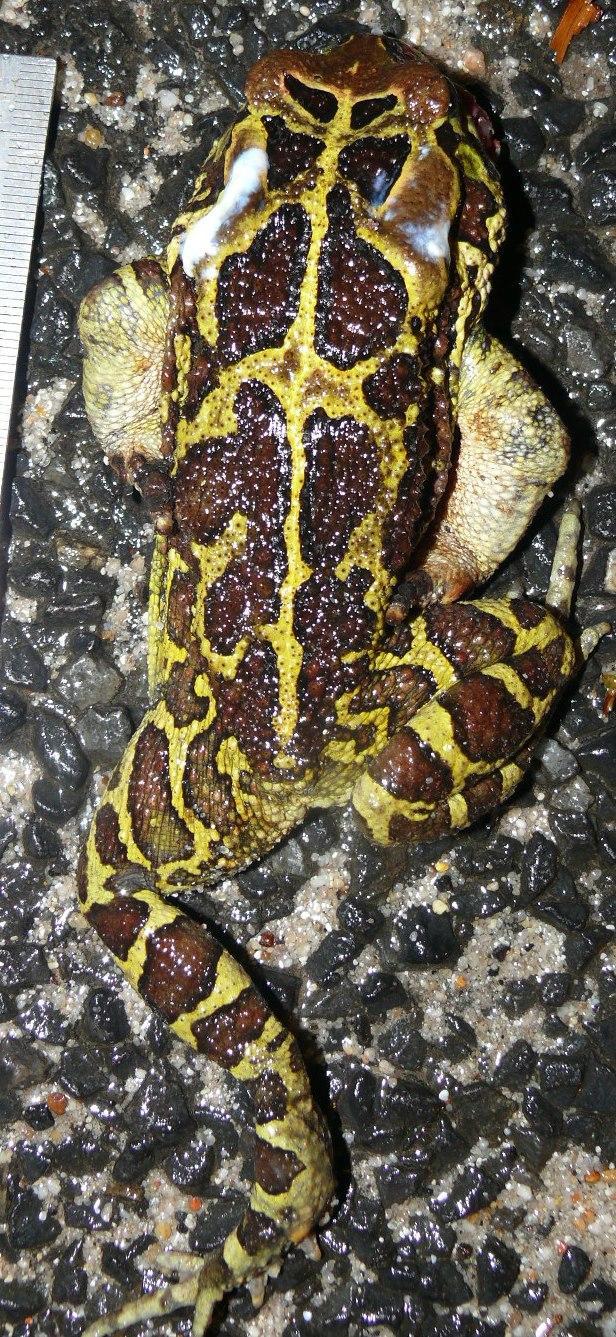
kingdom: Animalia
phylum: Chordata
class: Amphibia
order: Anura
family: Bufonidae
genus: Sclerophrys
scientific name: Sclerophrys pantherina
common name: Panther toad
